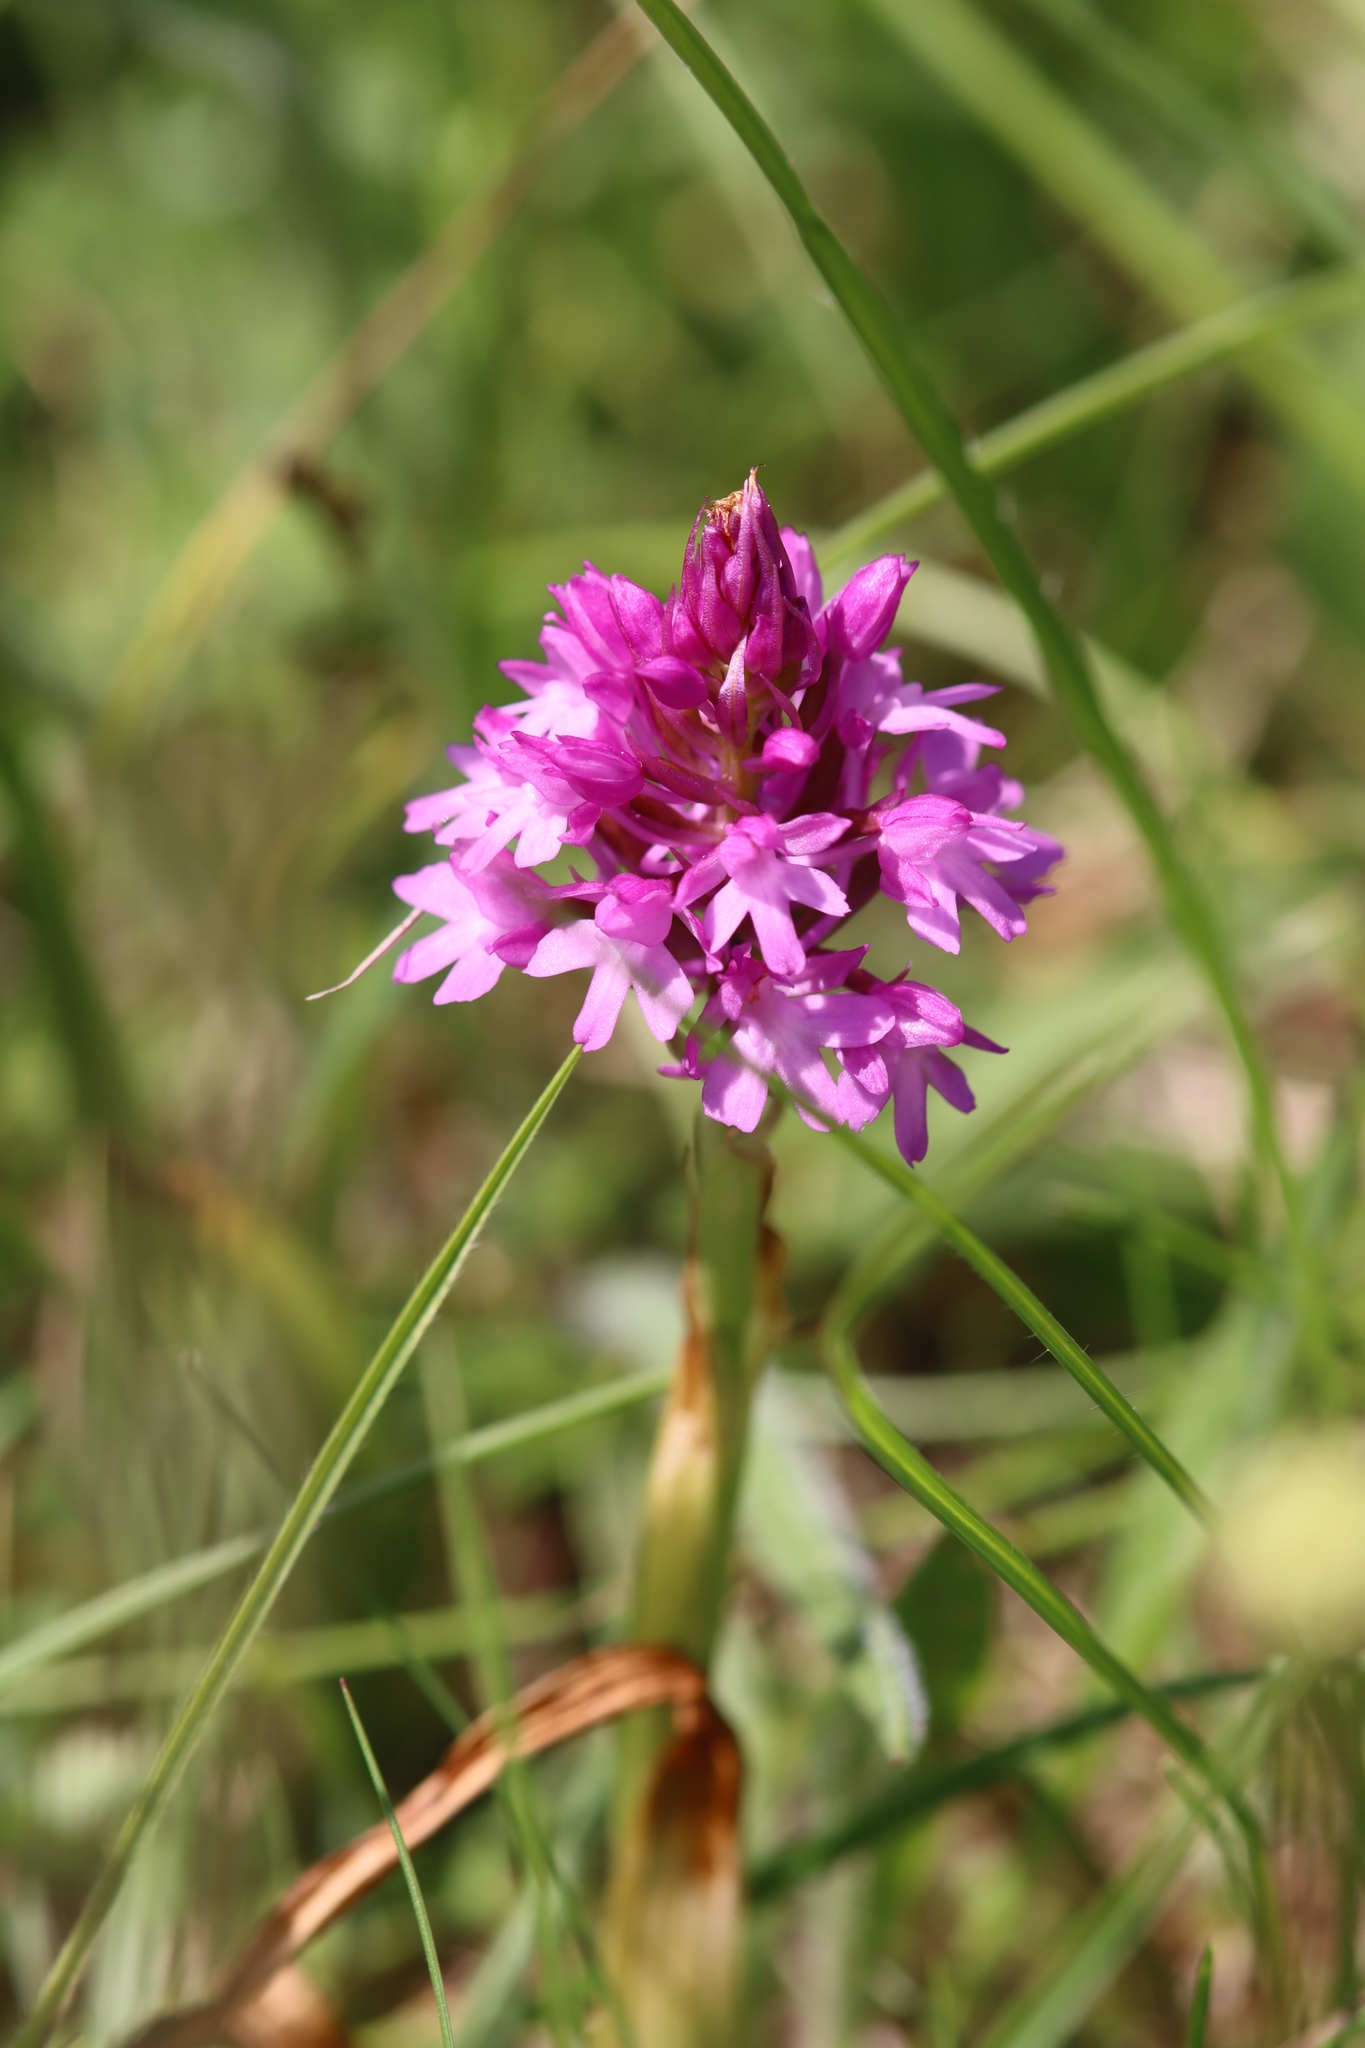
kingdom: Plantae
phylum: Tracheophyta
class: Liliopsida
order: Asparagales
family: Orchidaceae
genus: Anacamptis
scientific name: Anacamptis pyramidalis
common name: Pyramidal orchid
